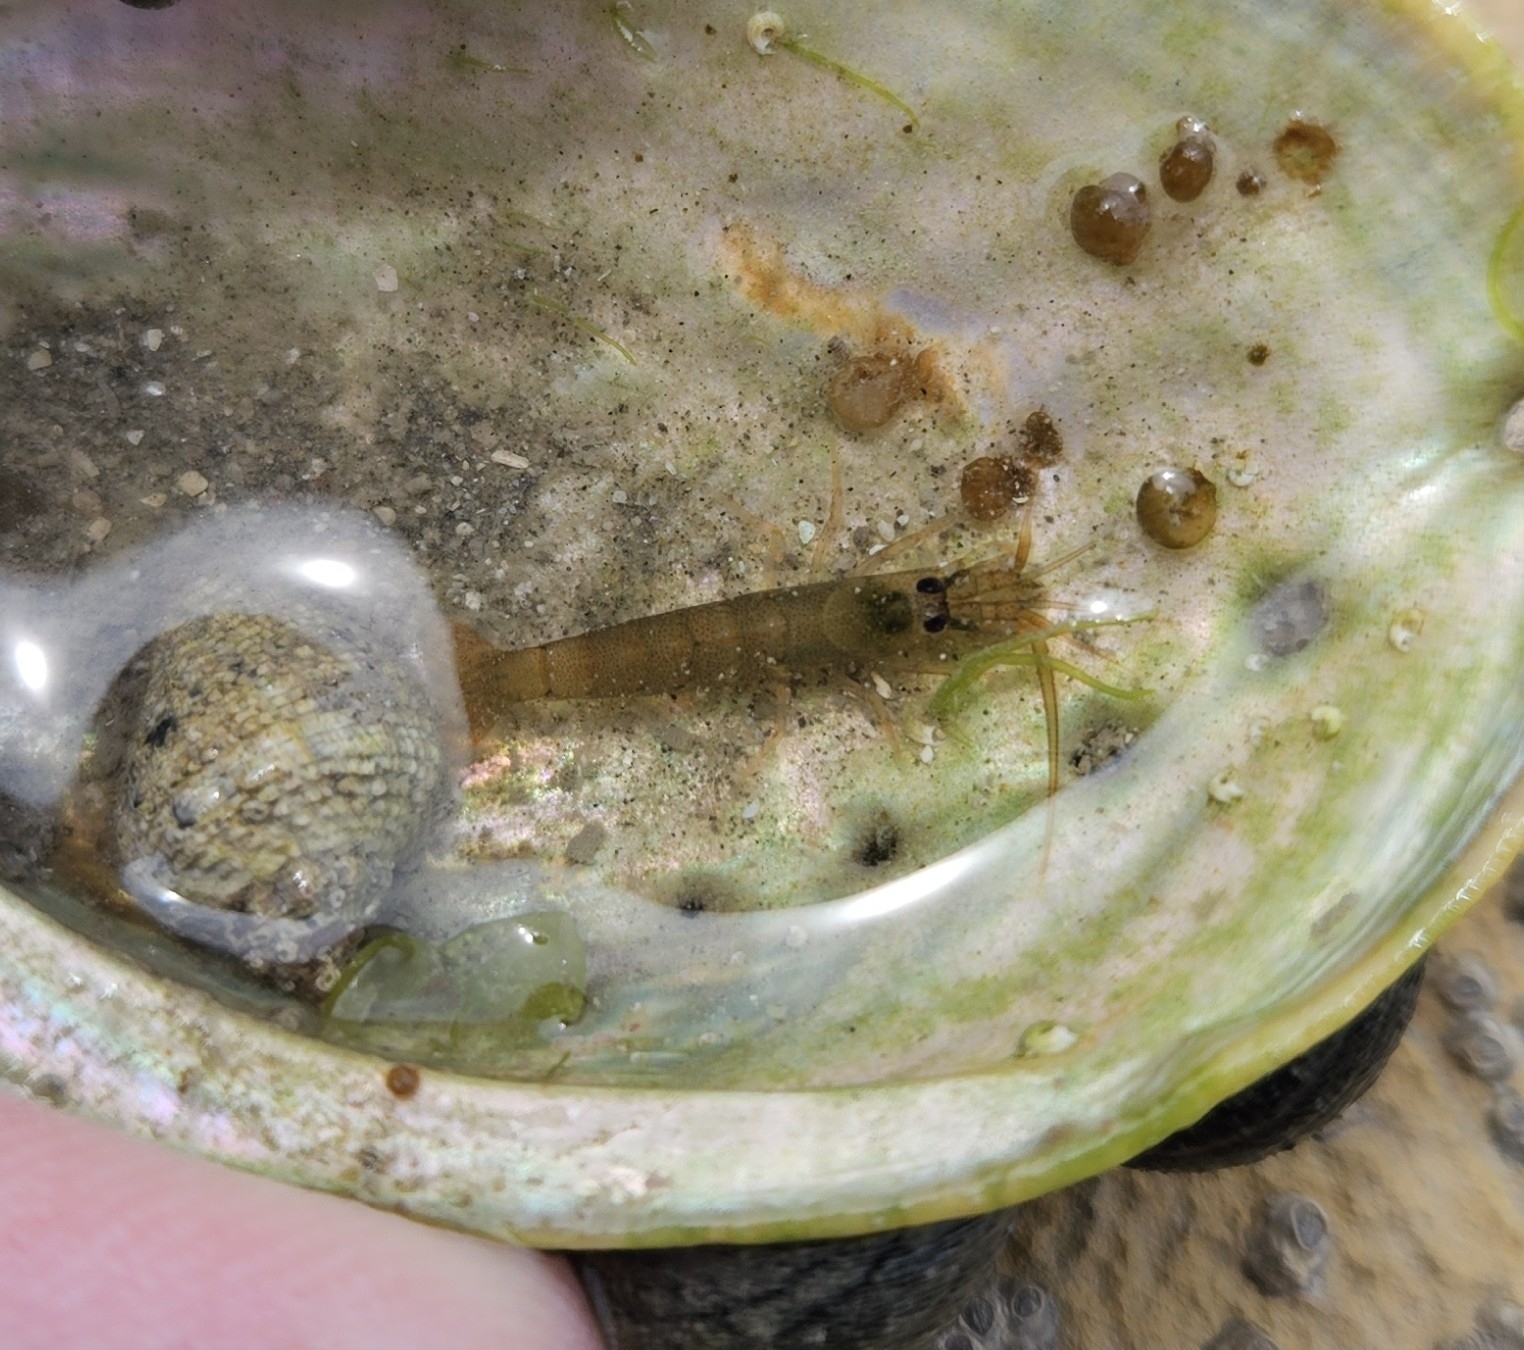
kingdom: Animalia
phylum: Arthropoda
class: Malacostraca
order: Decapoda
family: Alpheidae
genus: Betaeopsis
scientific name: Betaeopsis aequimanus
